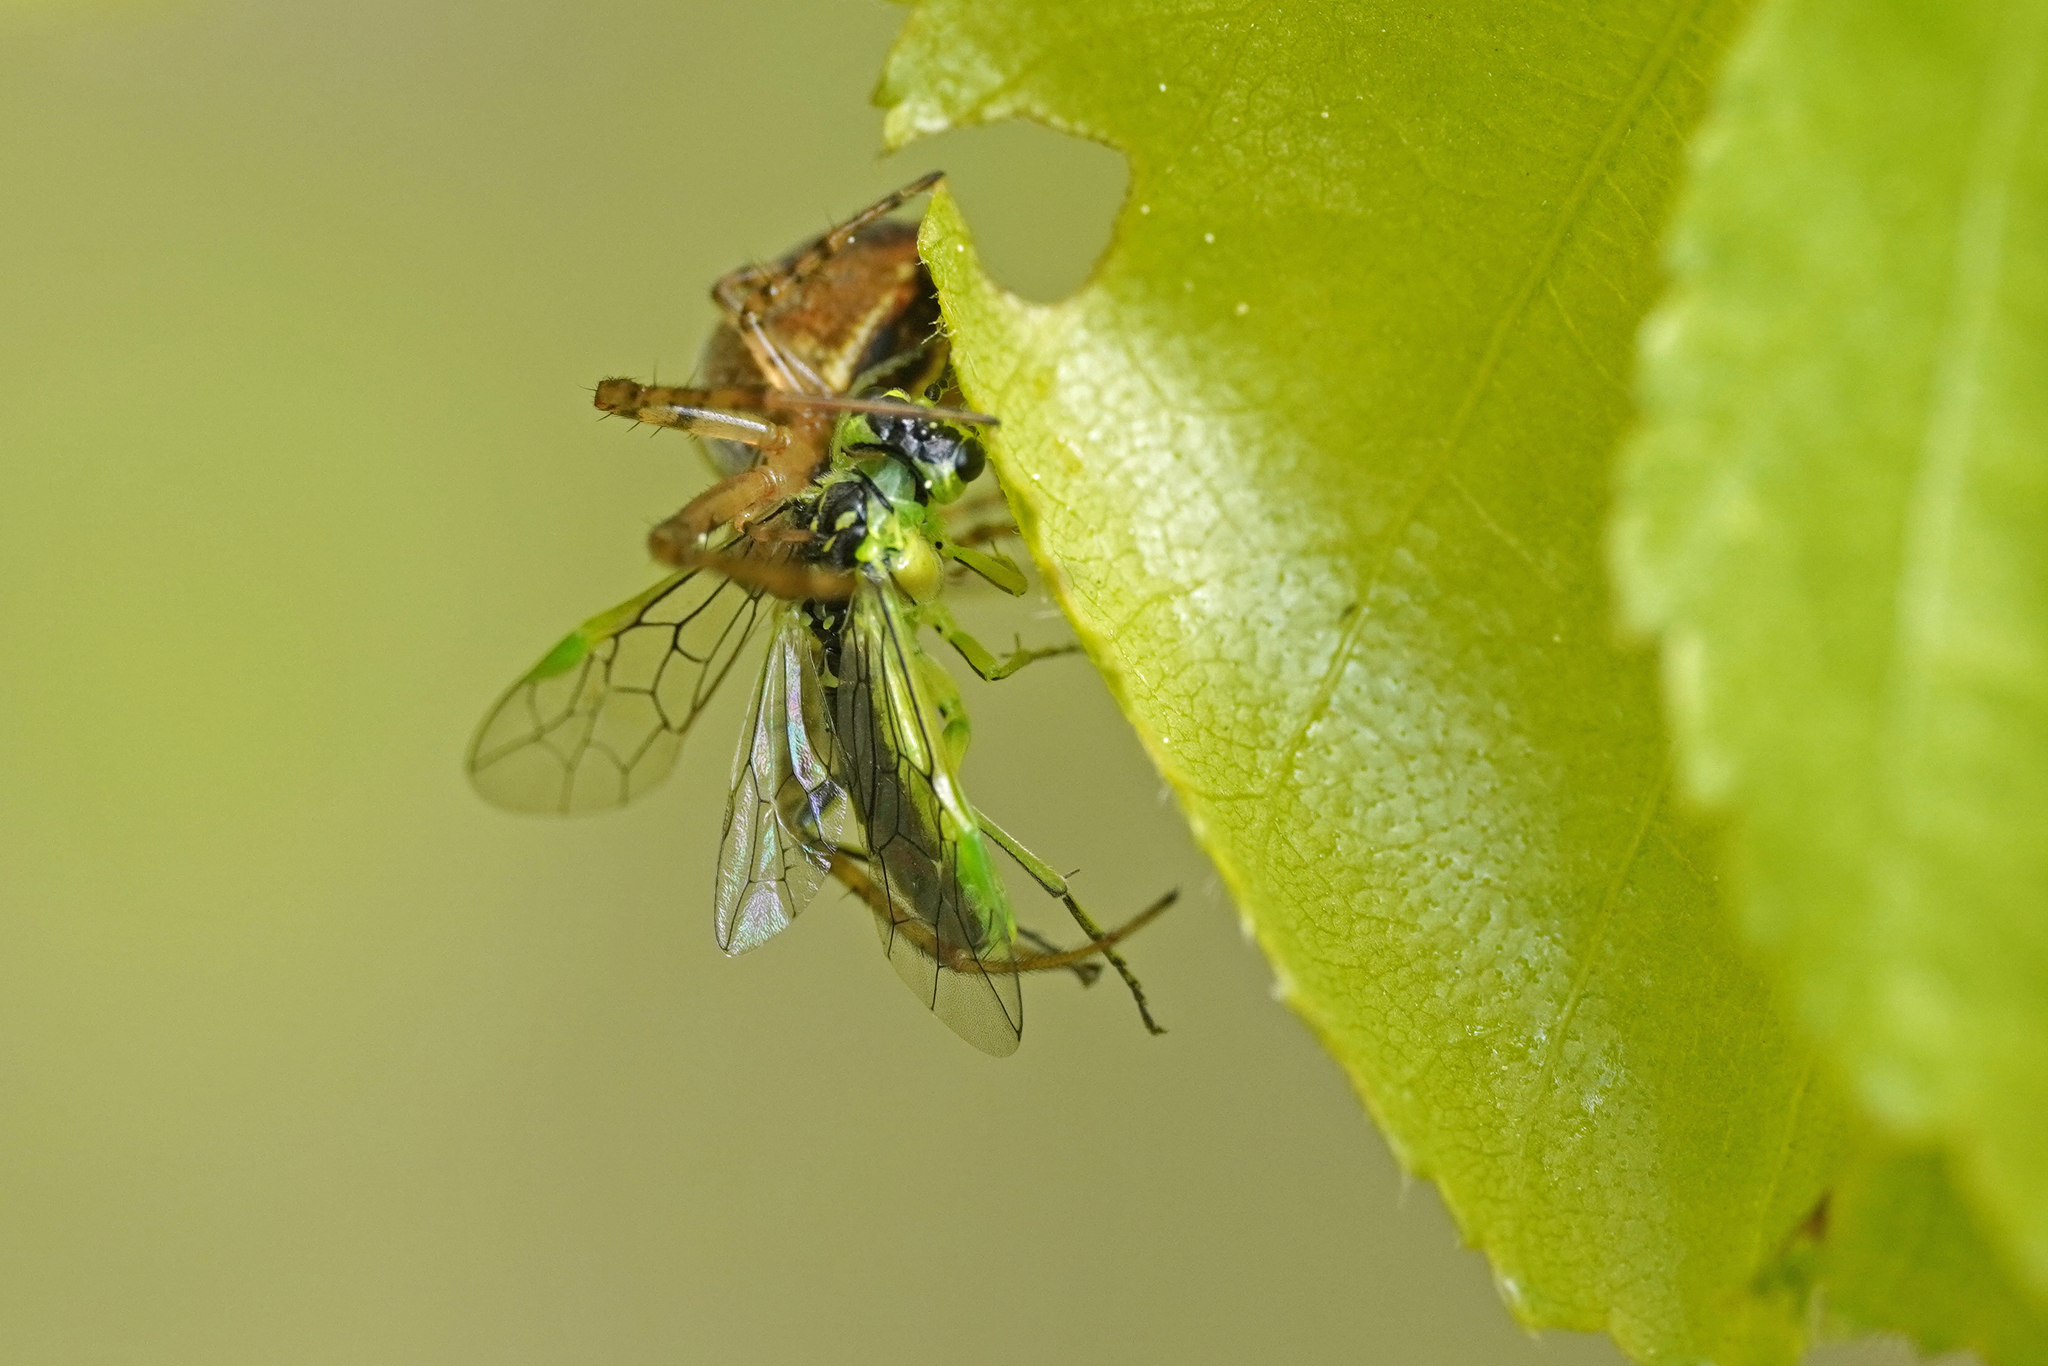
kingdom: Animalia
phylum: Arthropoda
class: Insecta
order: Hymenoptera
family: Tenthredinidae
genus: Rhogogaster
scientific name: Rhogogaster scalaris
